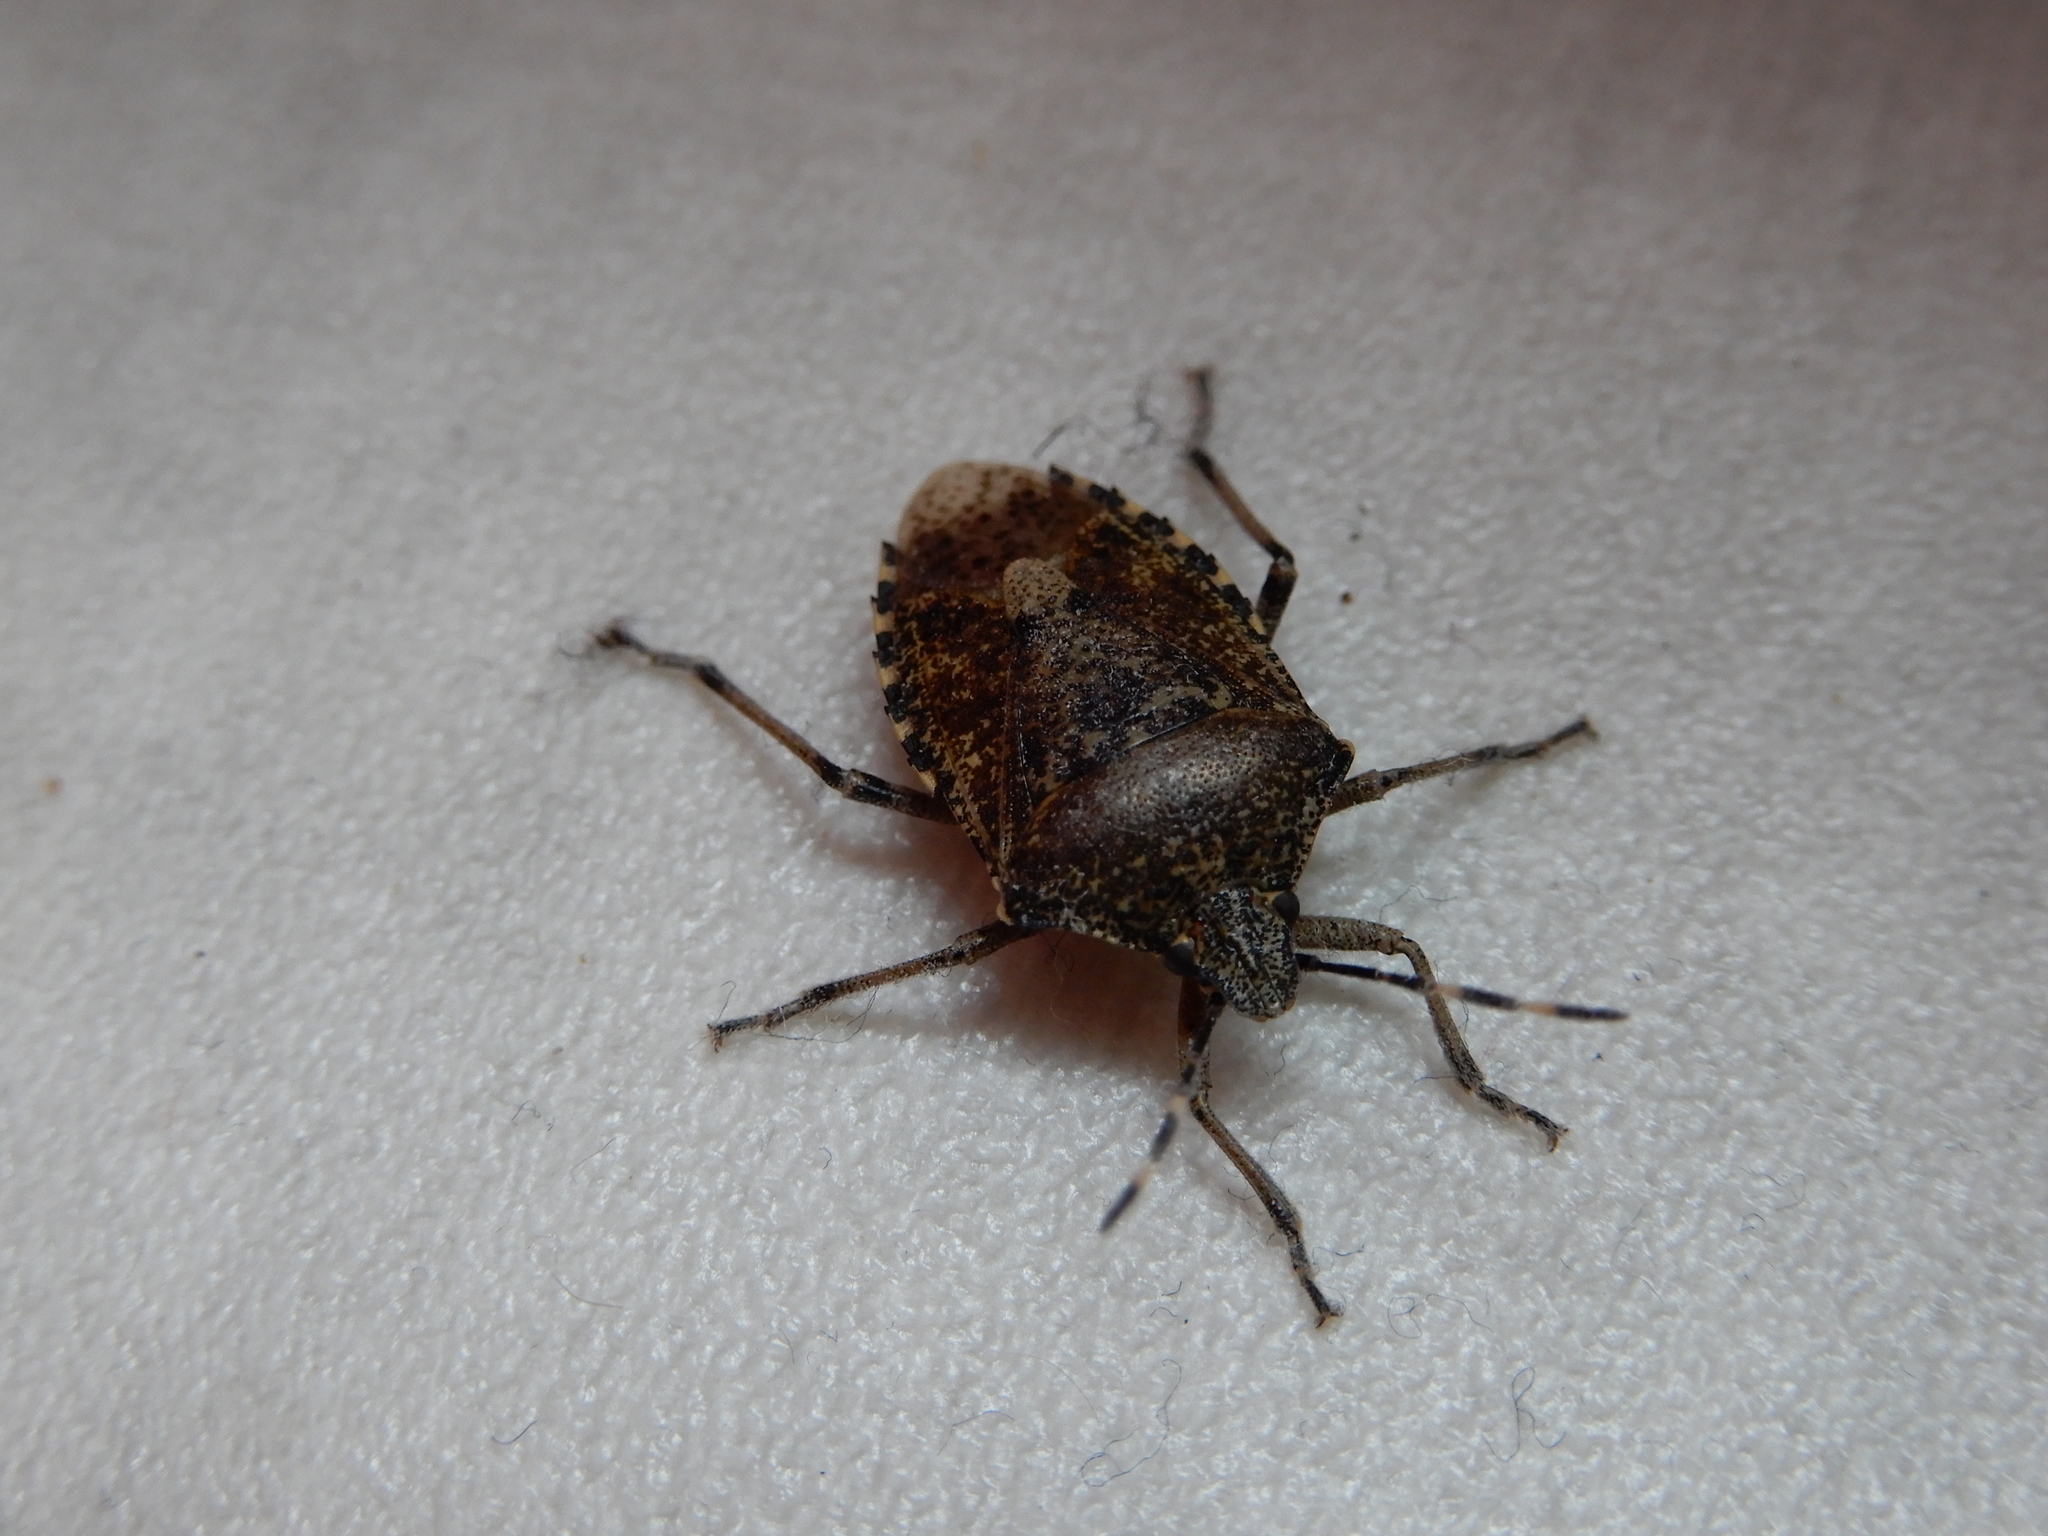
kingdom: Animalia
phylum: Arthropoda
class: Insecta
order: Hemiptera
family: Pentatomidae
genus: Rhaphigaster
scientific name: Rhaphigaster nebulosa
